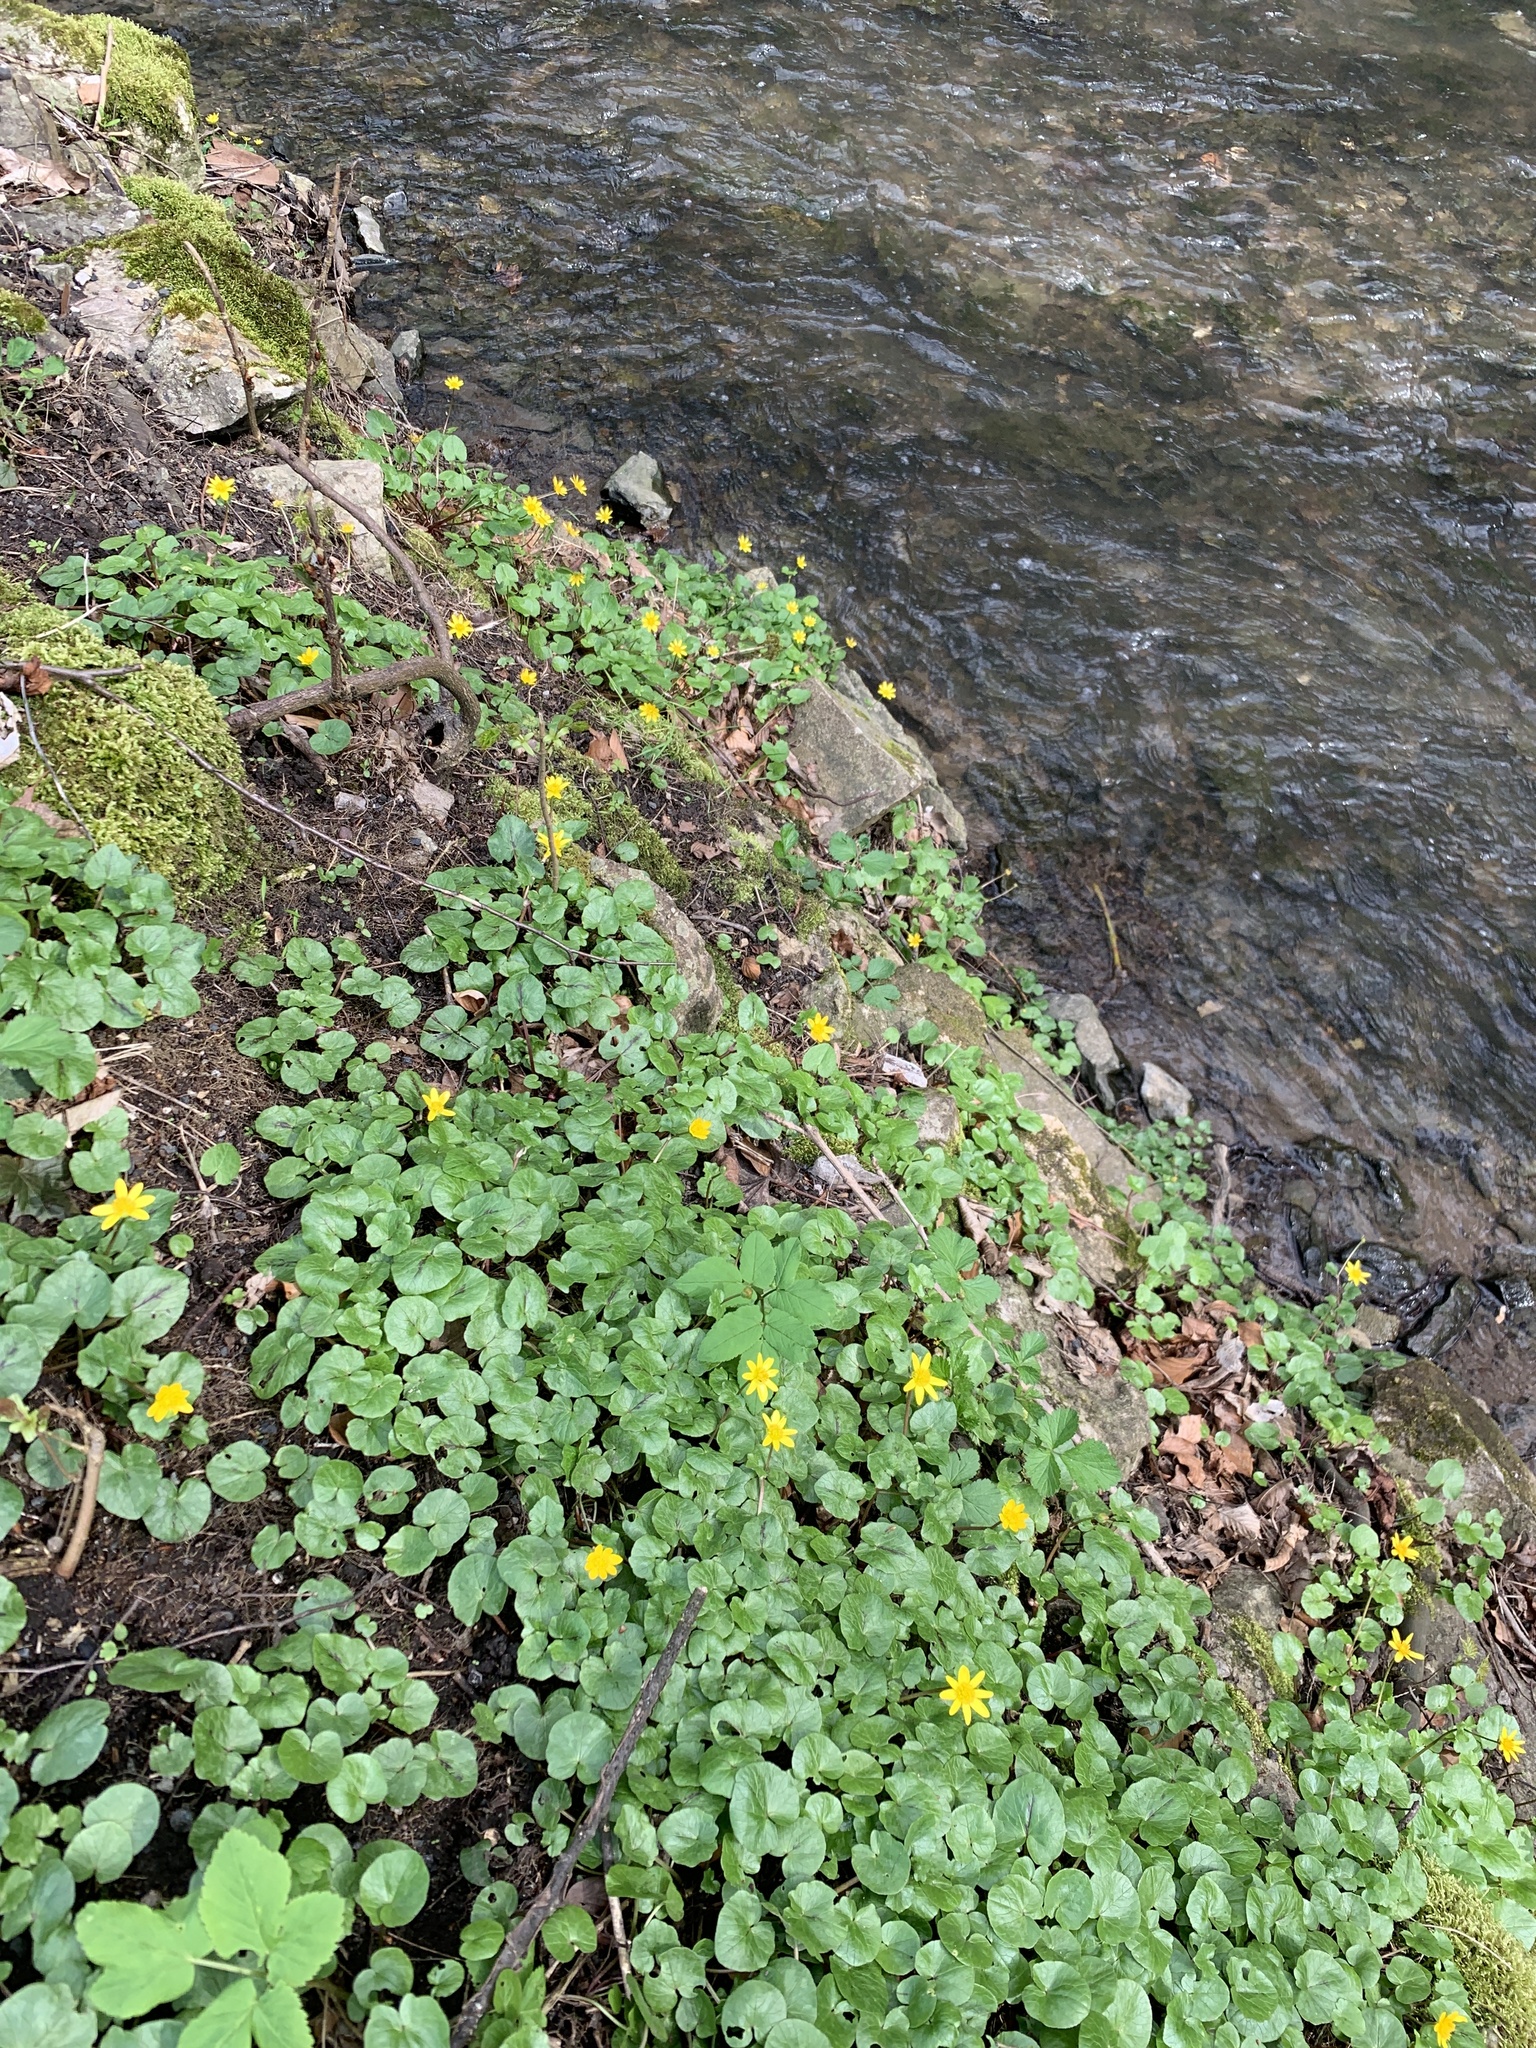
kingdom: Plantae
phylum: Tracheophyta
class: Magnoliopsida
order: Ranunculales
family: Ranunculaceae
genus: Ficaria
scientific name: Ficaria verna
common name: Lesser celandine
